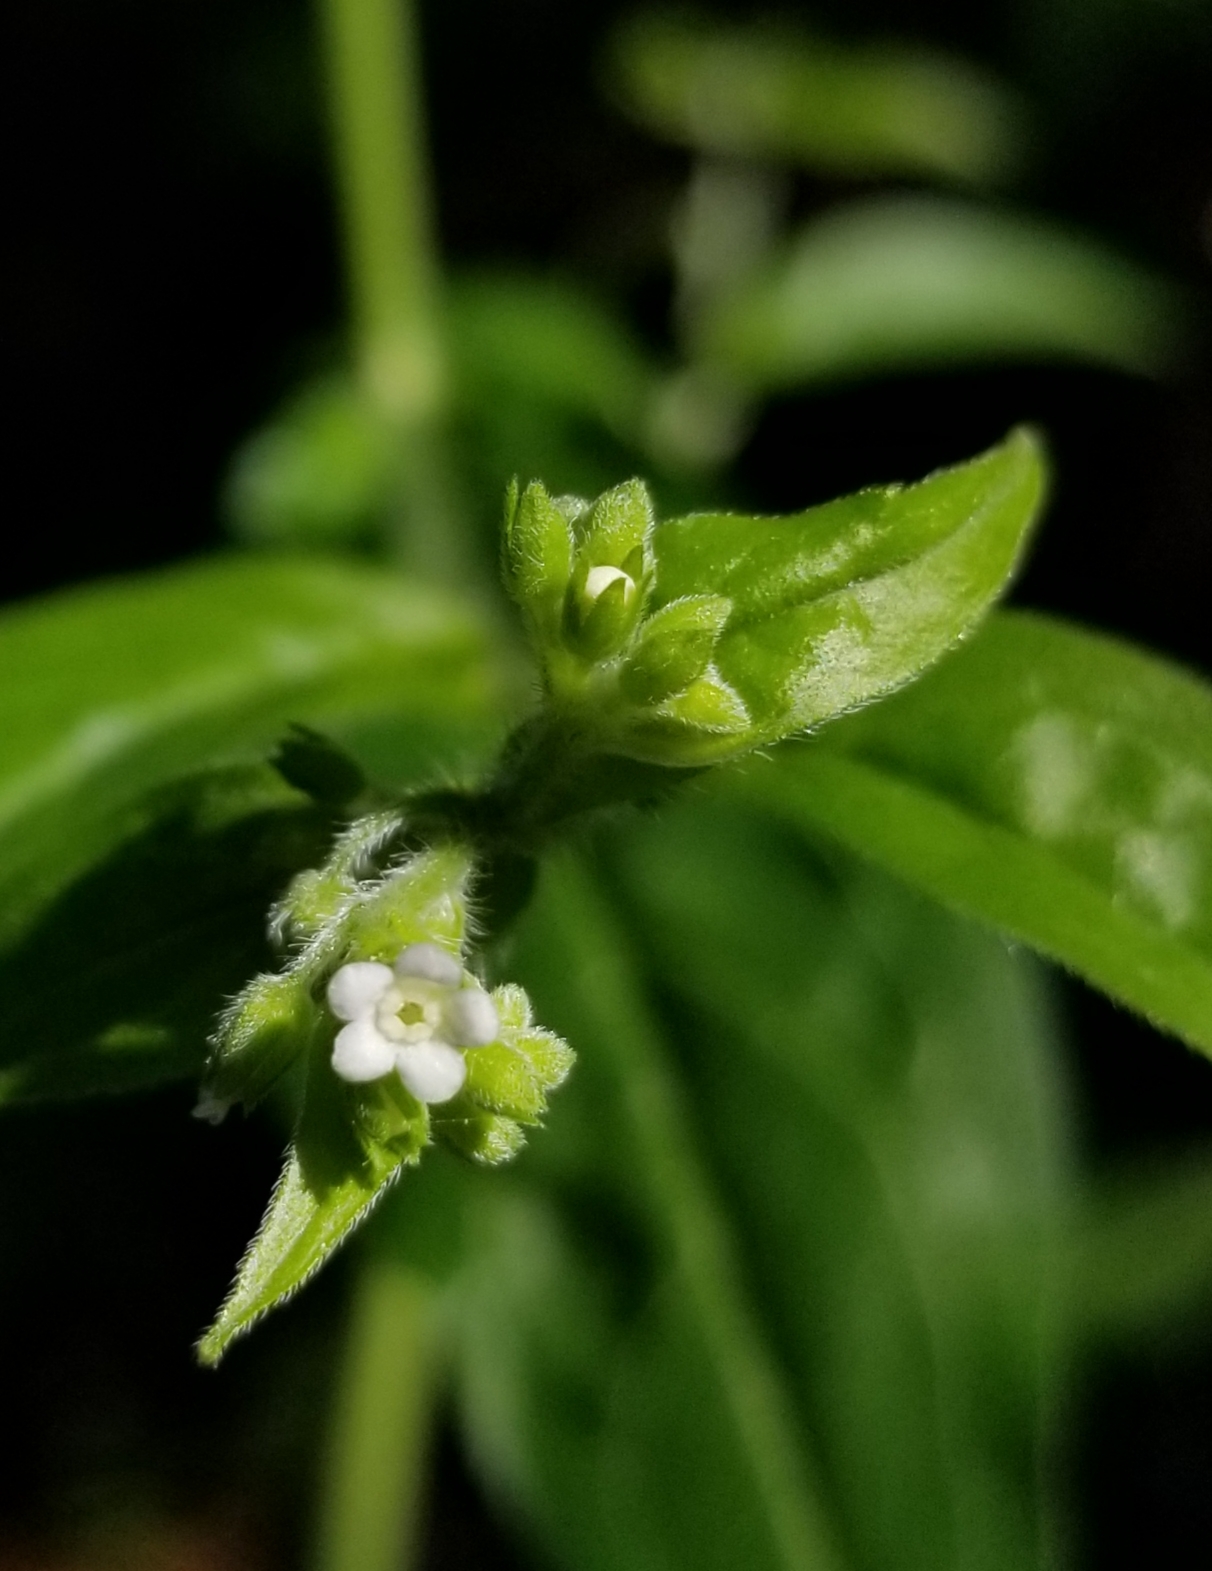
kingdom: Plantae
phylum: Tracheophyta
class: Magnoliopsida
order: Boraginales
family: Boraginaceae
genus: Hackelia
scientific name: Hackelia virginiana
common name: Beggar's-lice
